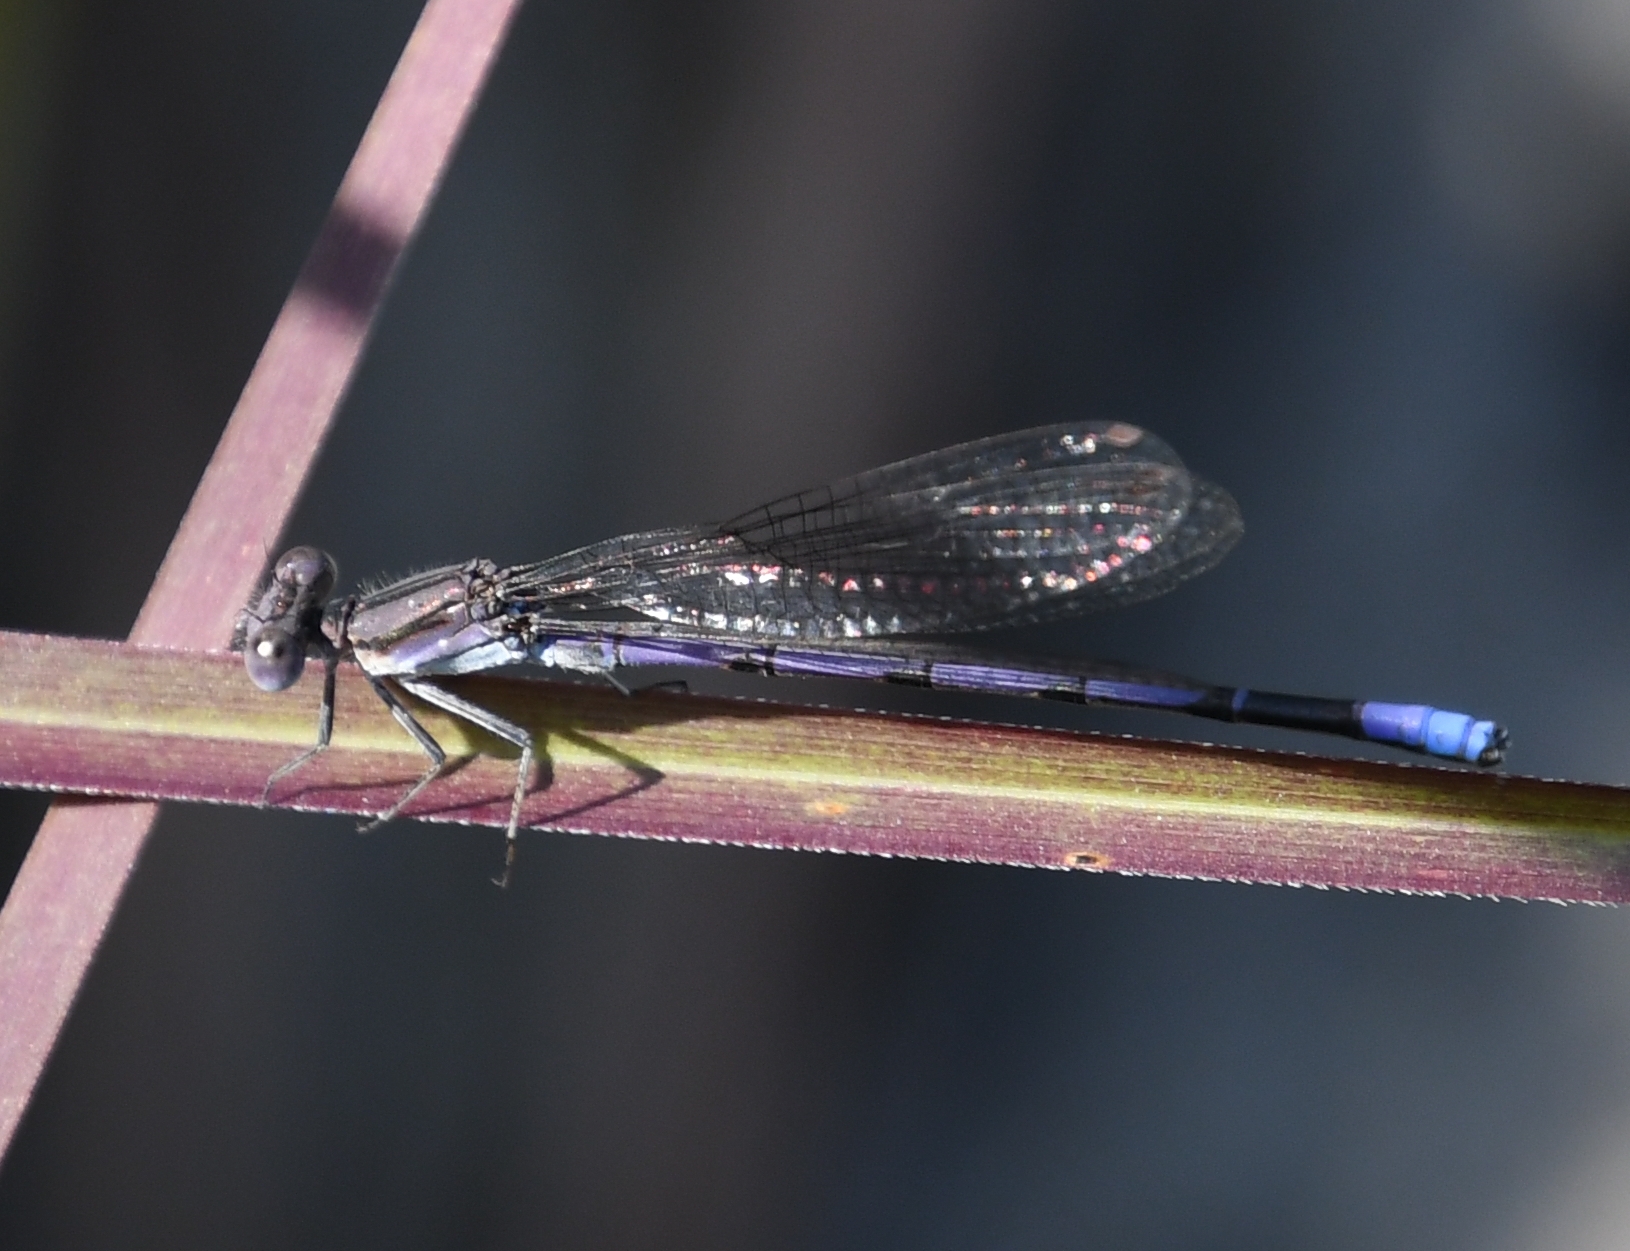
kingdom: Animalia
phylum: Arthropoda
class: Insecta
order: Odonata
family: Coenagrionidae
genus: Argia
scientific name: Argia fumipennis
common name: Variable dancer
